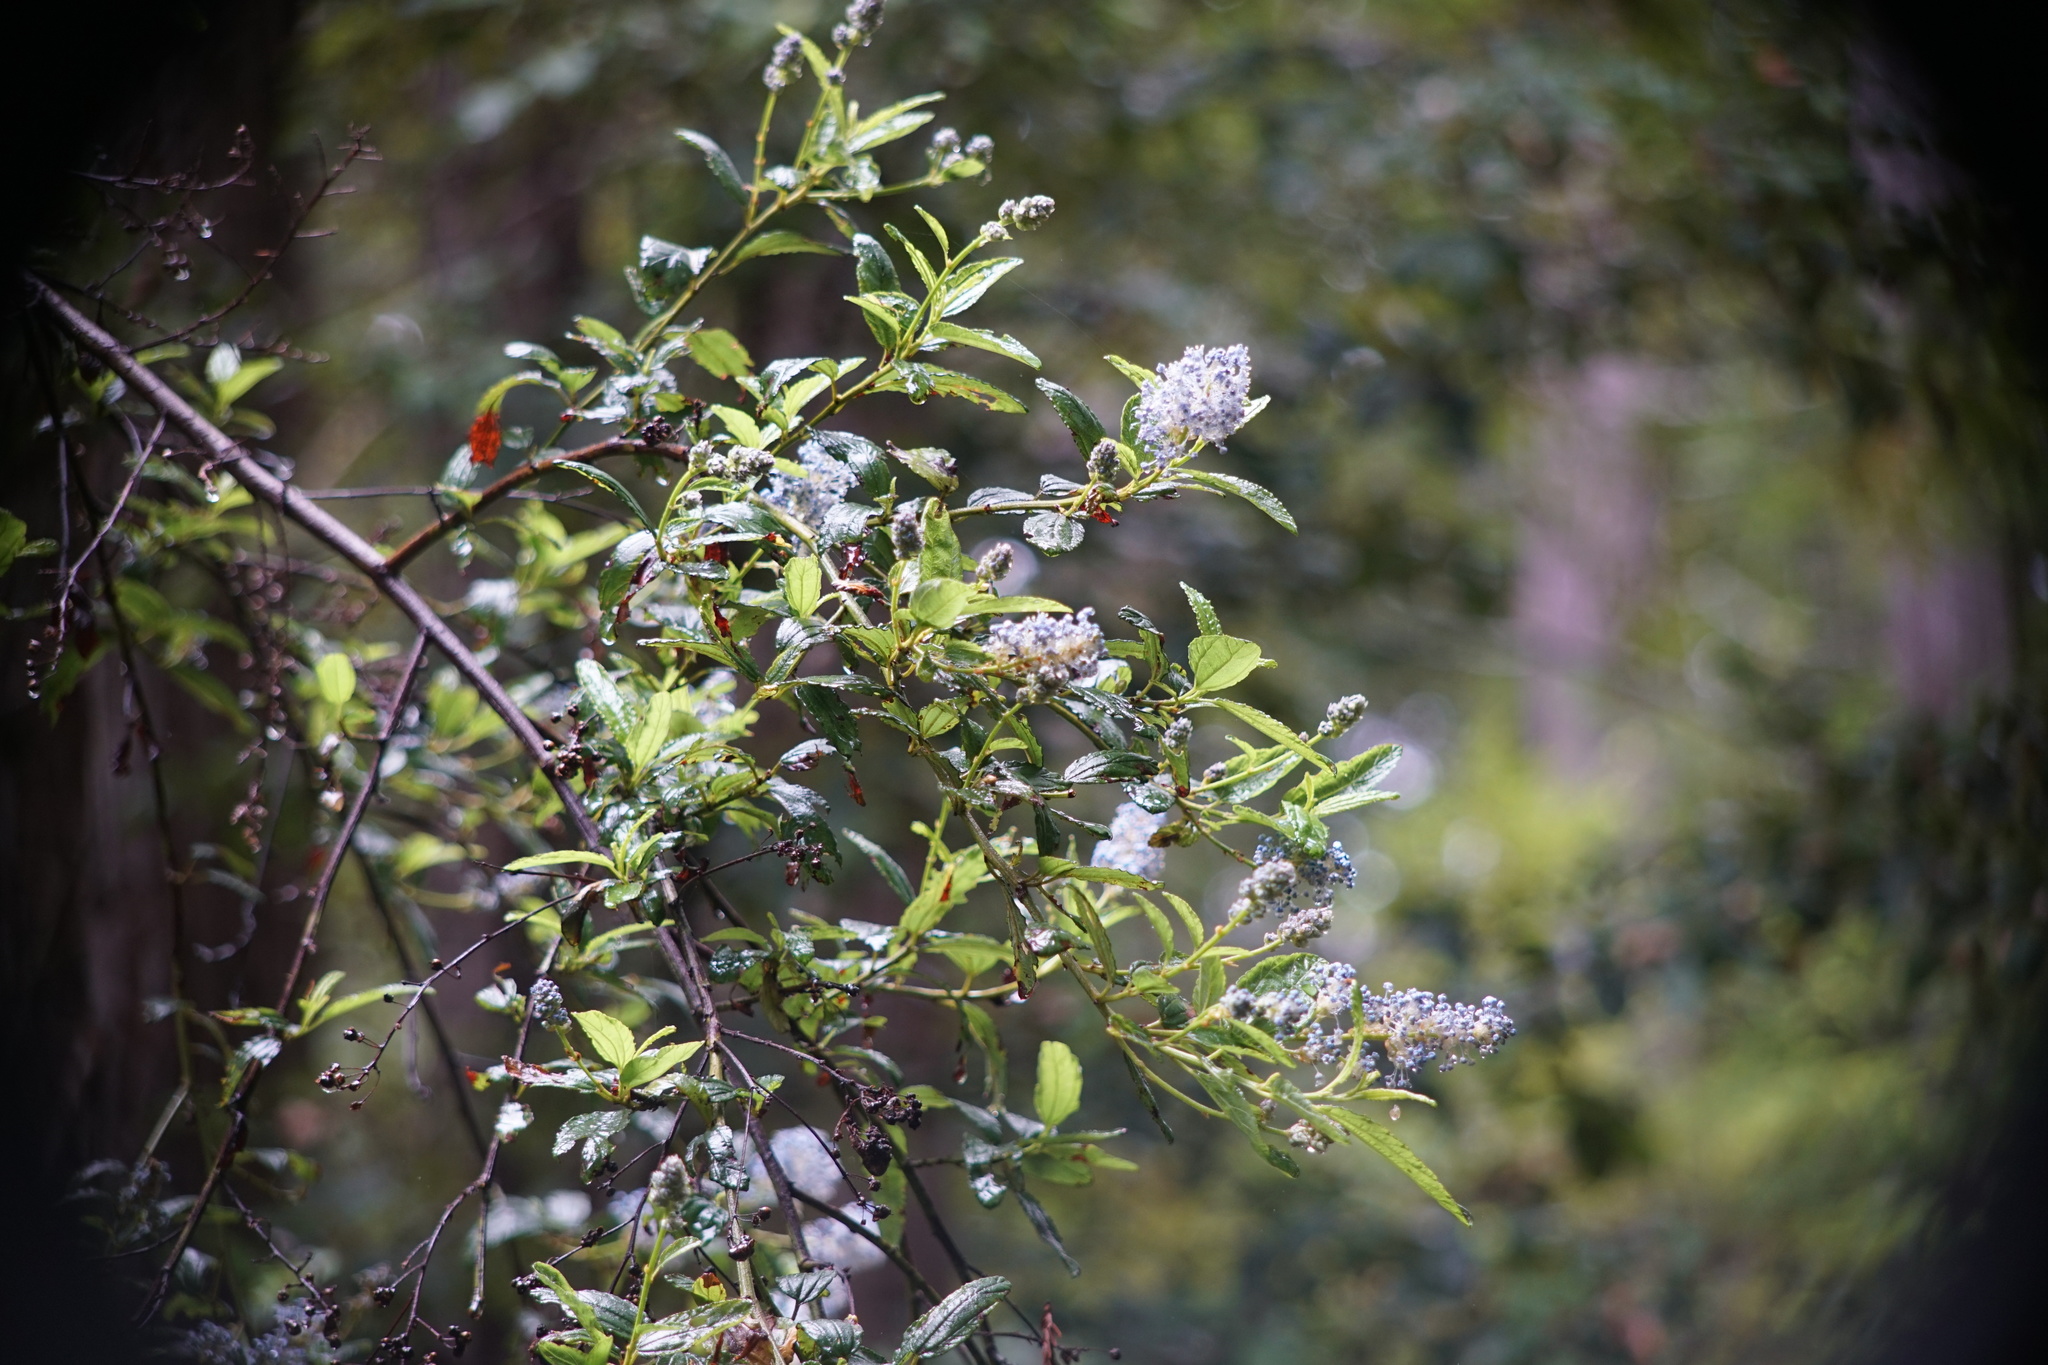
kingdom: Plantae
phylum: Tracheophyta
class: Magnoliopsida
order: Rosales
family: Rhamnaceae
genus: Ceanothus
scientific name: Ceanothus thyrsiflorus
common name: California-lilac
